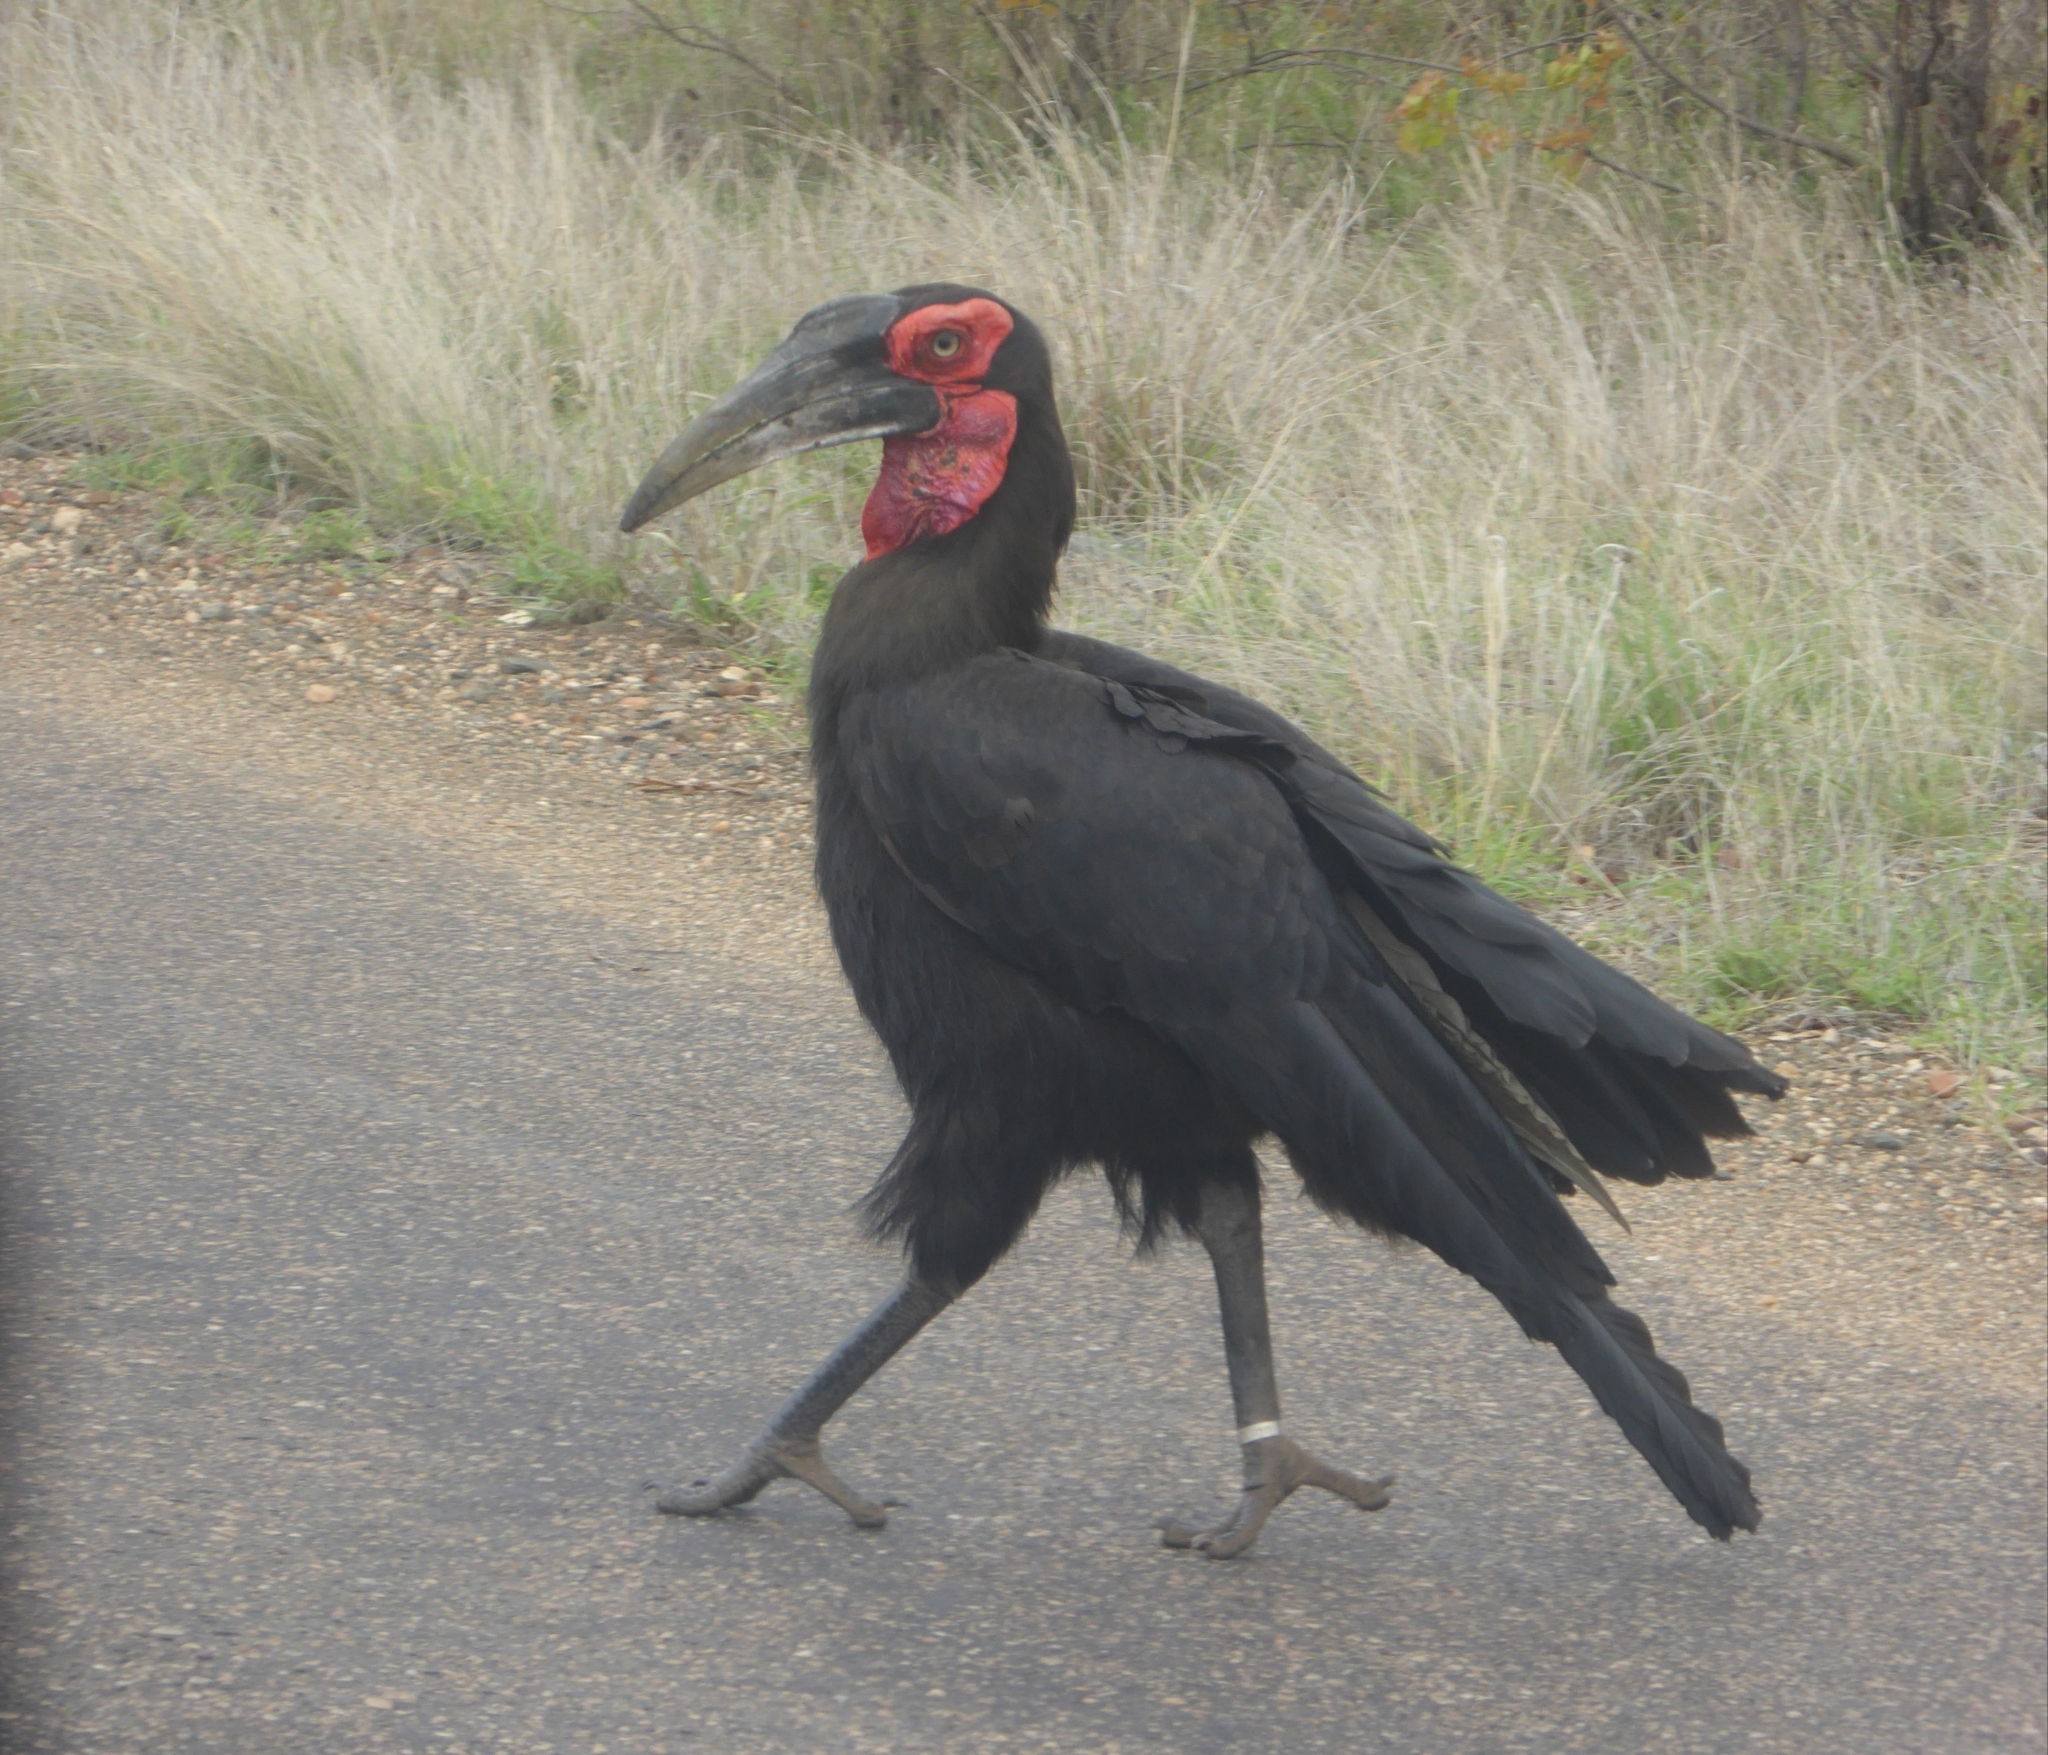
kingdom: Animalia
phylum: Chordata
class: Aves
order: Bucerotiformes
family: Bucorvidae
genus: Bucorvus
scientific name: Bucorvus leadbeateri
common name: Southern ground-hornbill
